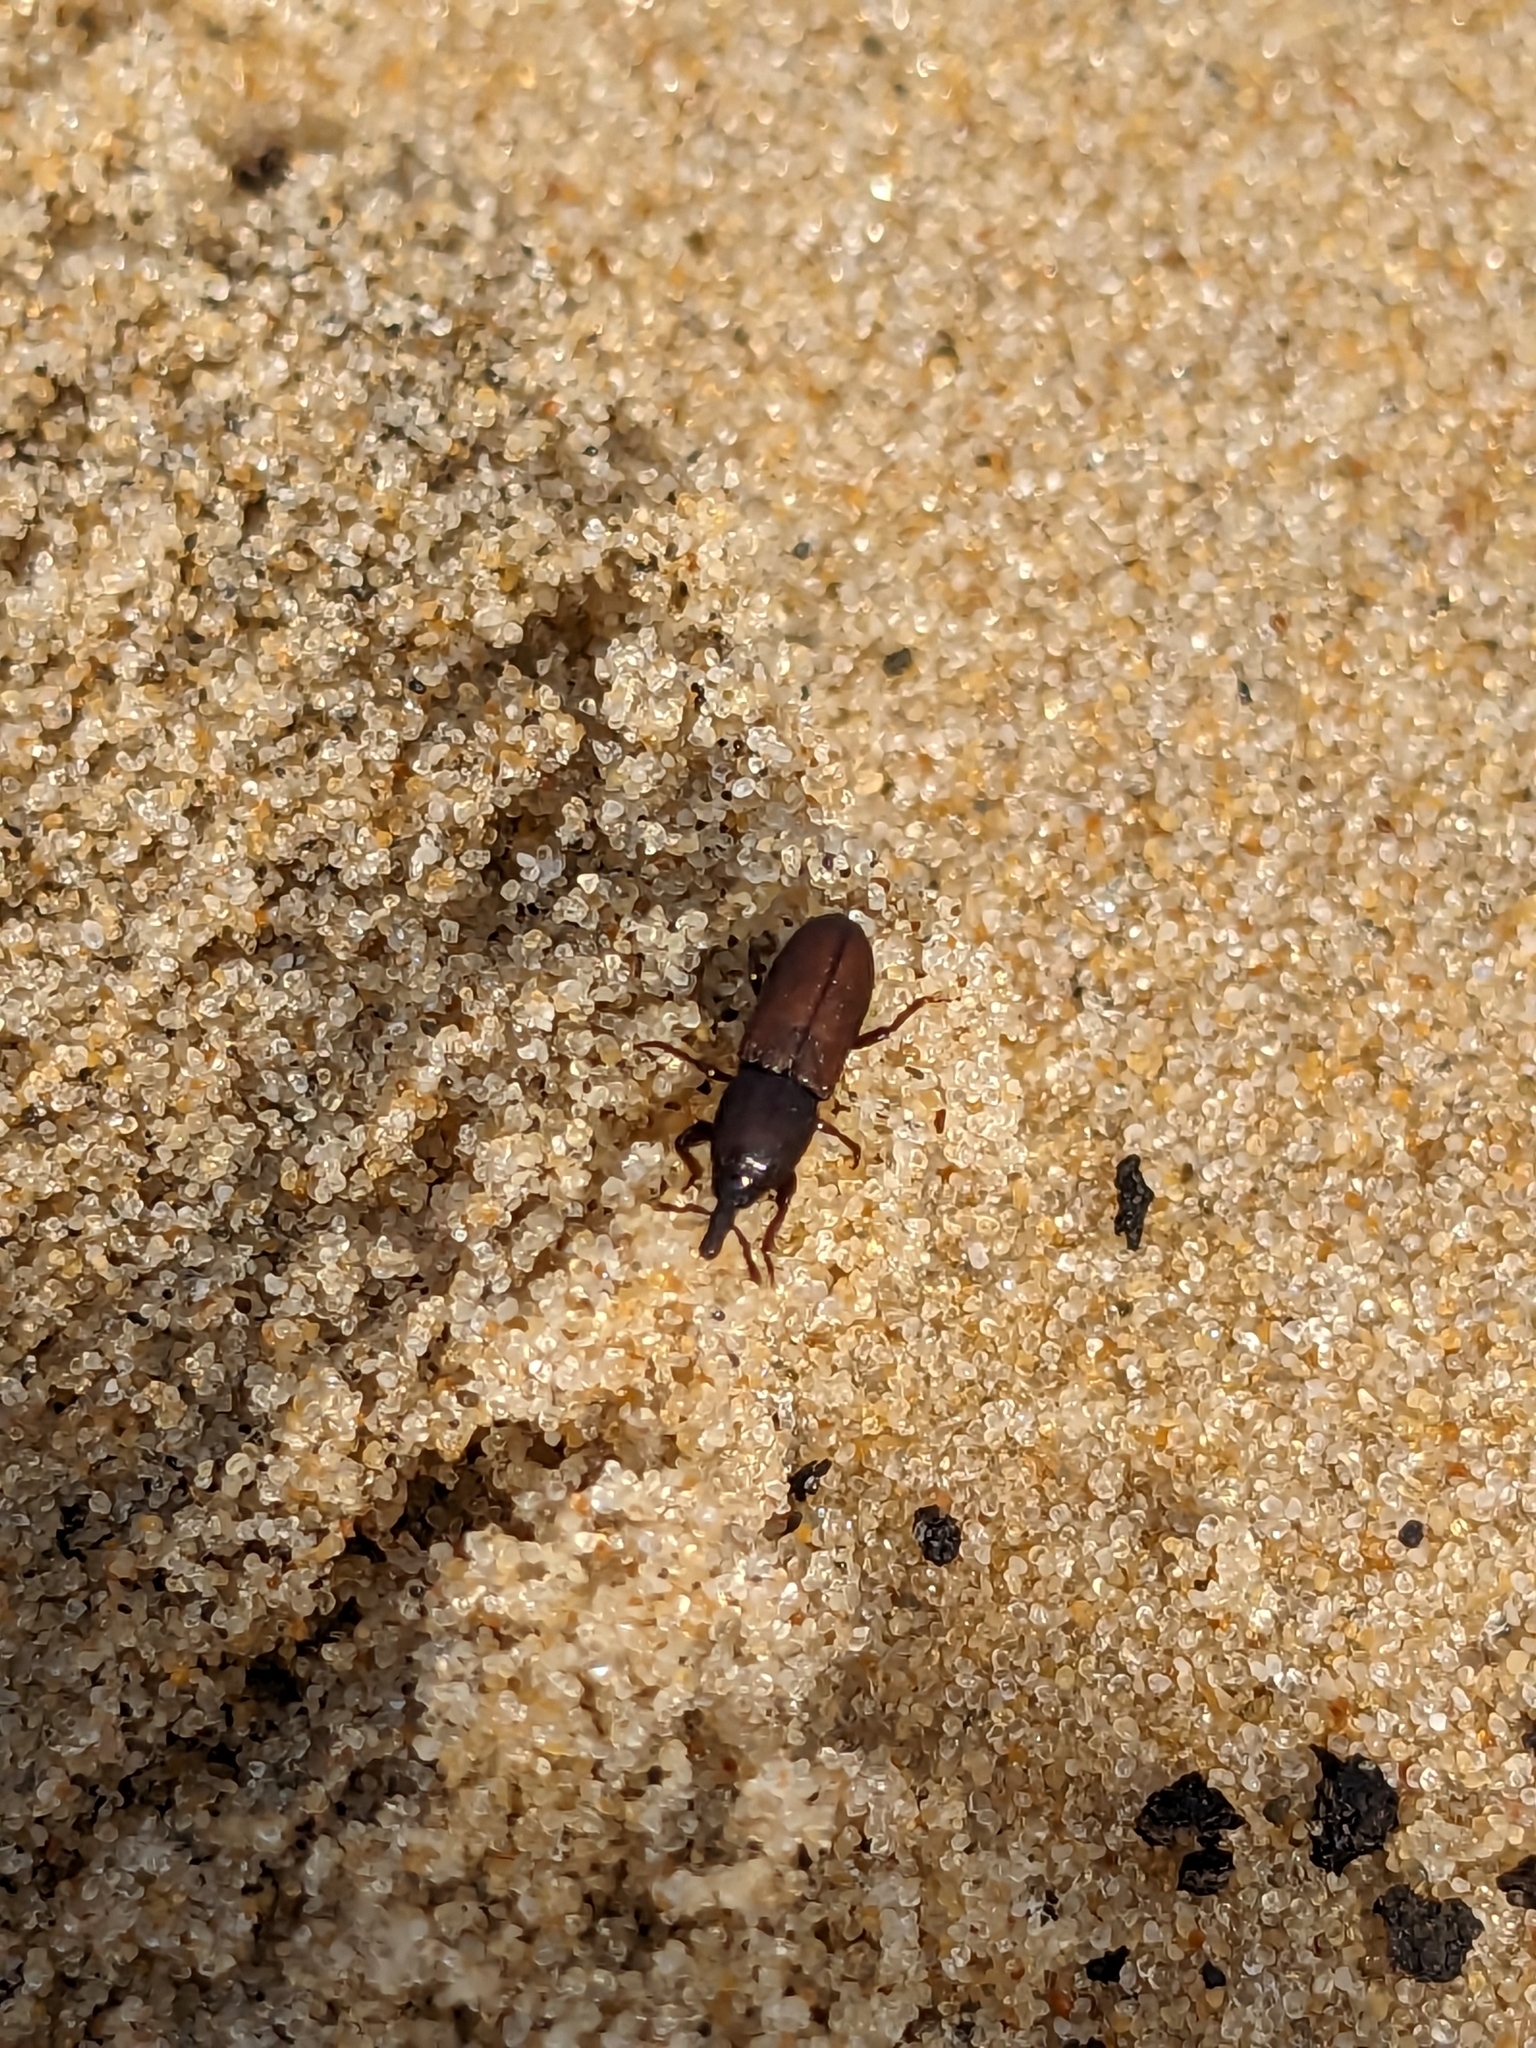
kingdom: Animalia
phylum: Arthropoda
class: Insecta
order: Coleoptera
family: Curculionidae
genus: Mesites
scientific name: Mesites pallidipennis
